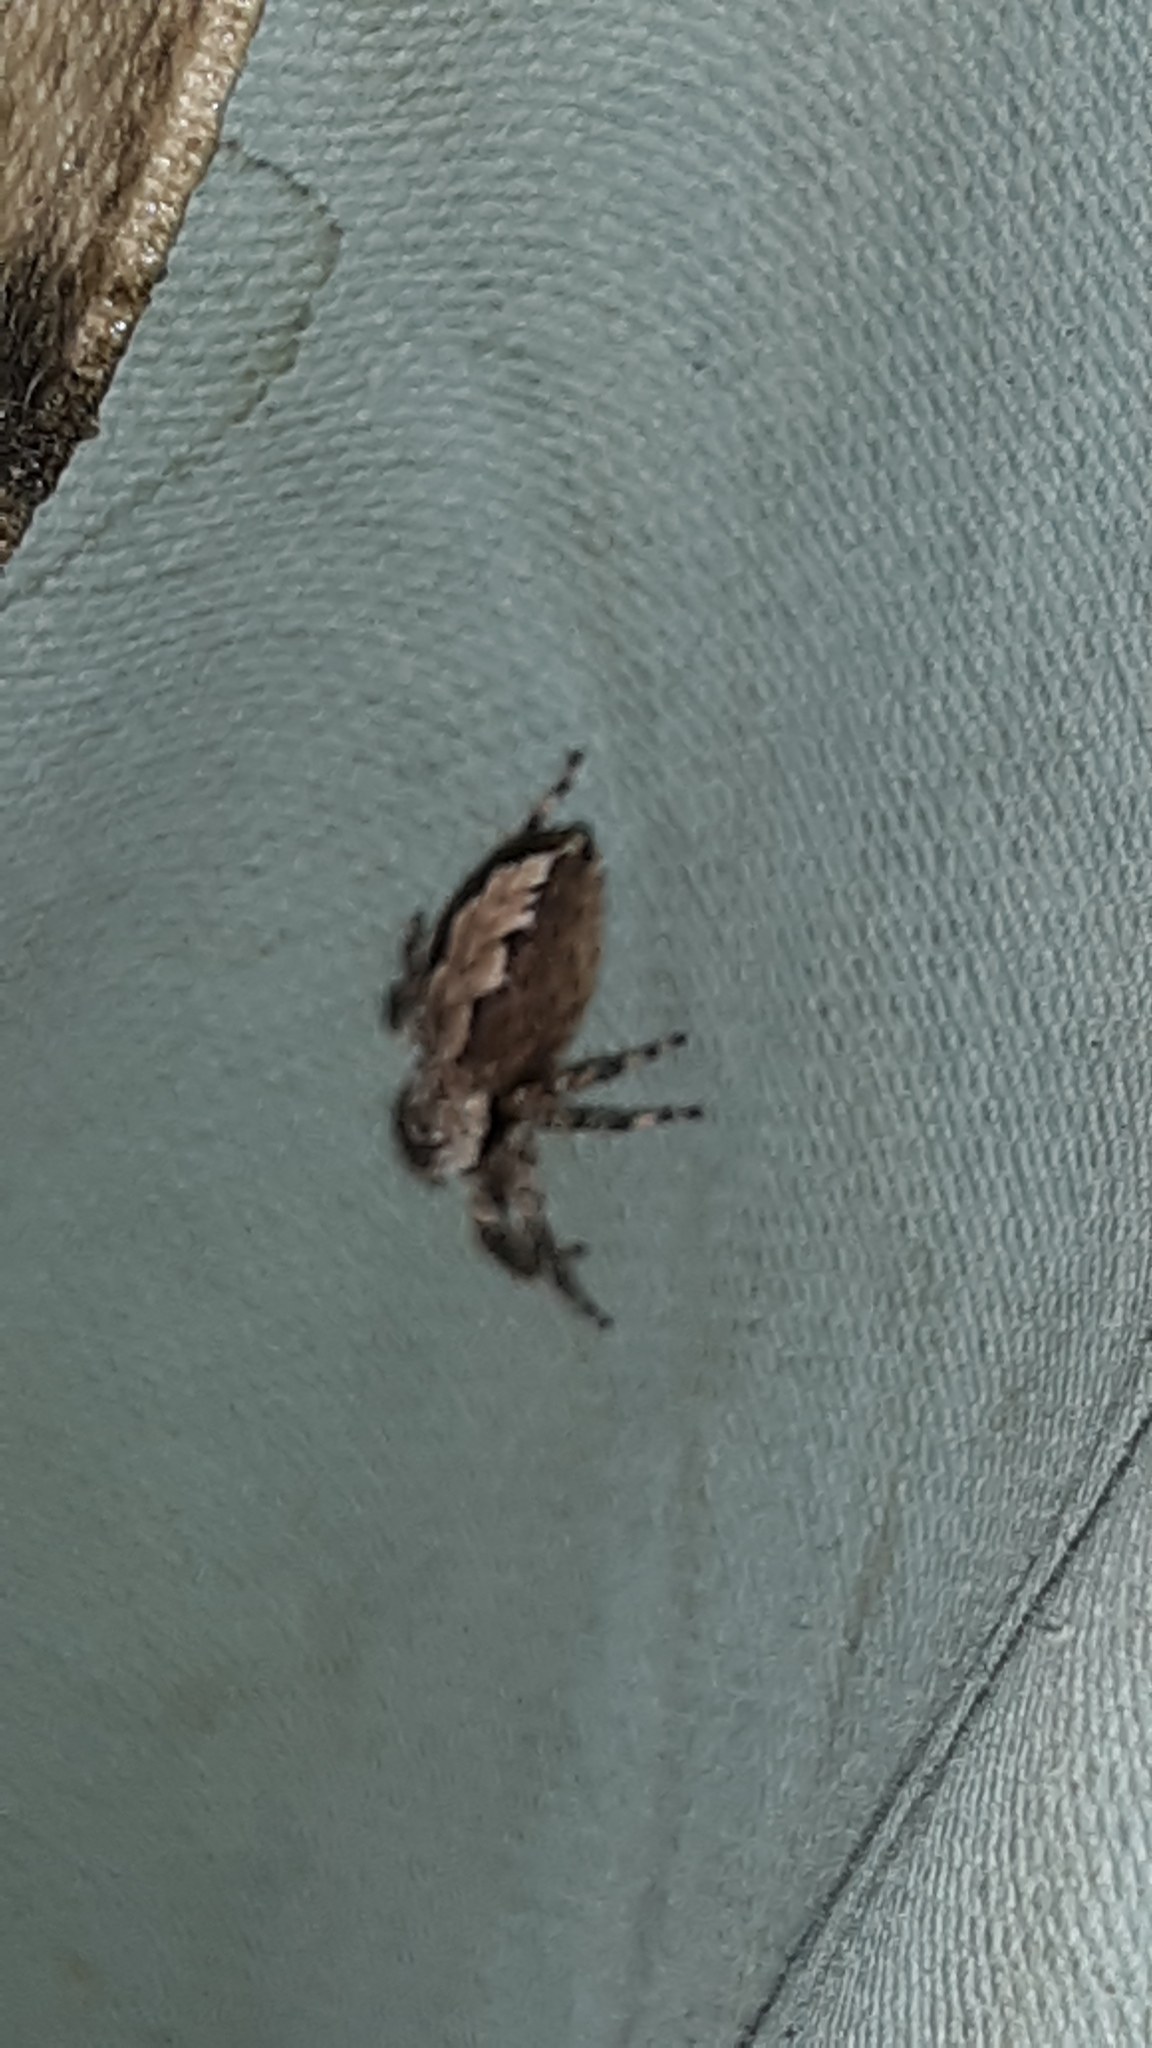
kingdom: Animalia
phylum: Arthropoda
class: Arachnida
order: Araneae
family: Salticidae
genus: Platycryptus
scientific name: Platycryptus undatus
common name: Tan jumping spider
